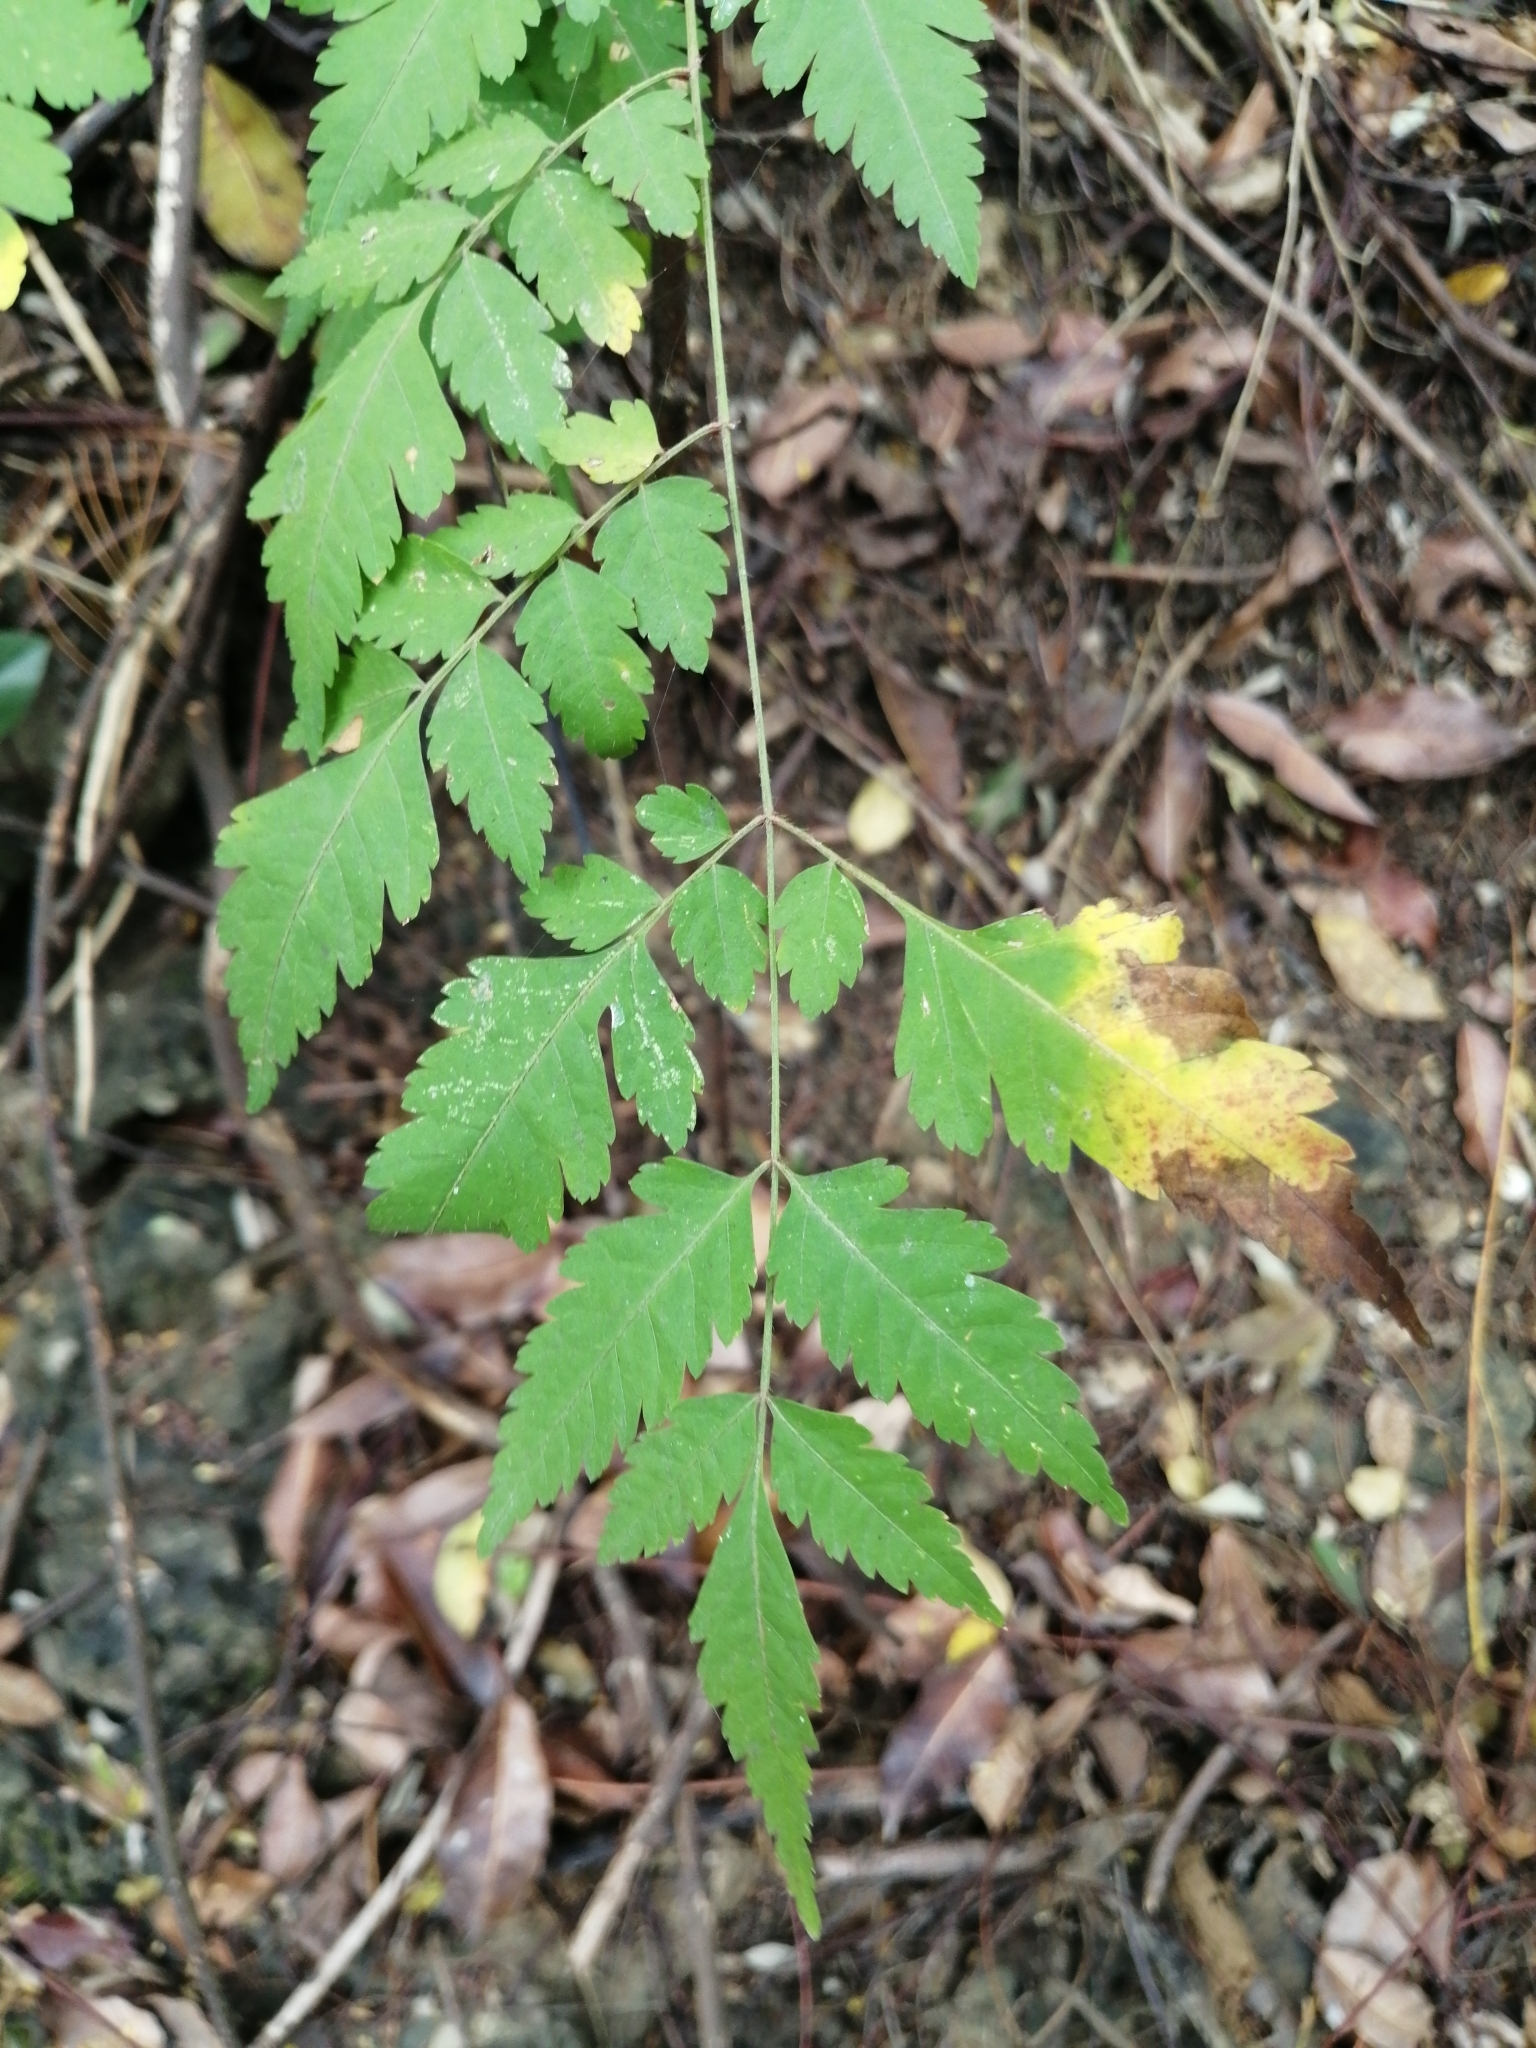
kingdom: Plantae
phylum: Tracheophyta
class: Magnoliopsida
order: Sapindales
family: Sapindaceae
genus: Koelreuteria
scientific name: Koelreuteria elegans
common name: Chinese flame tree
